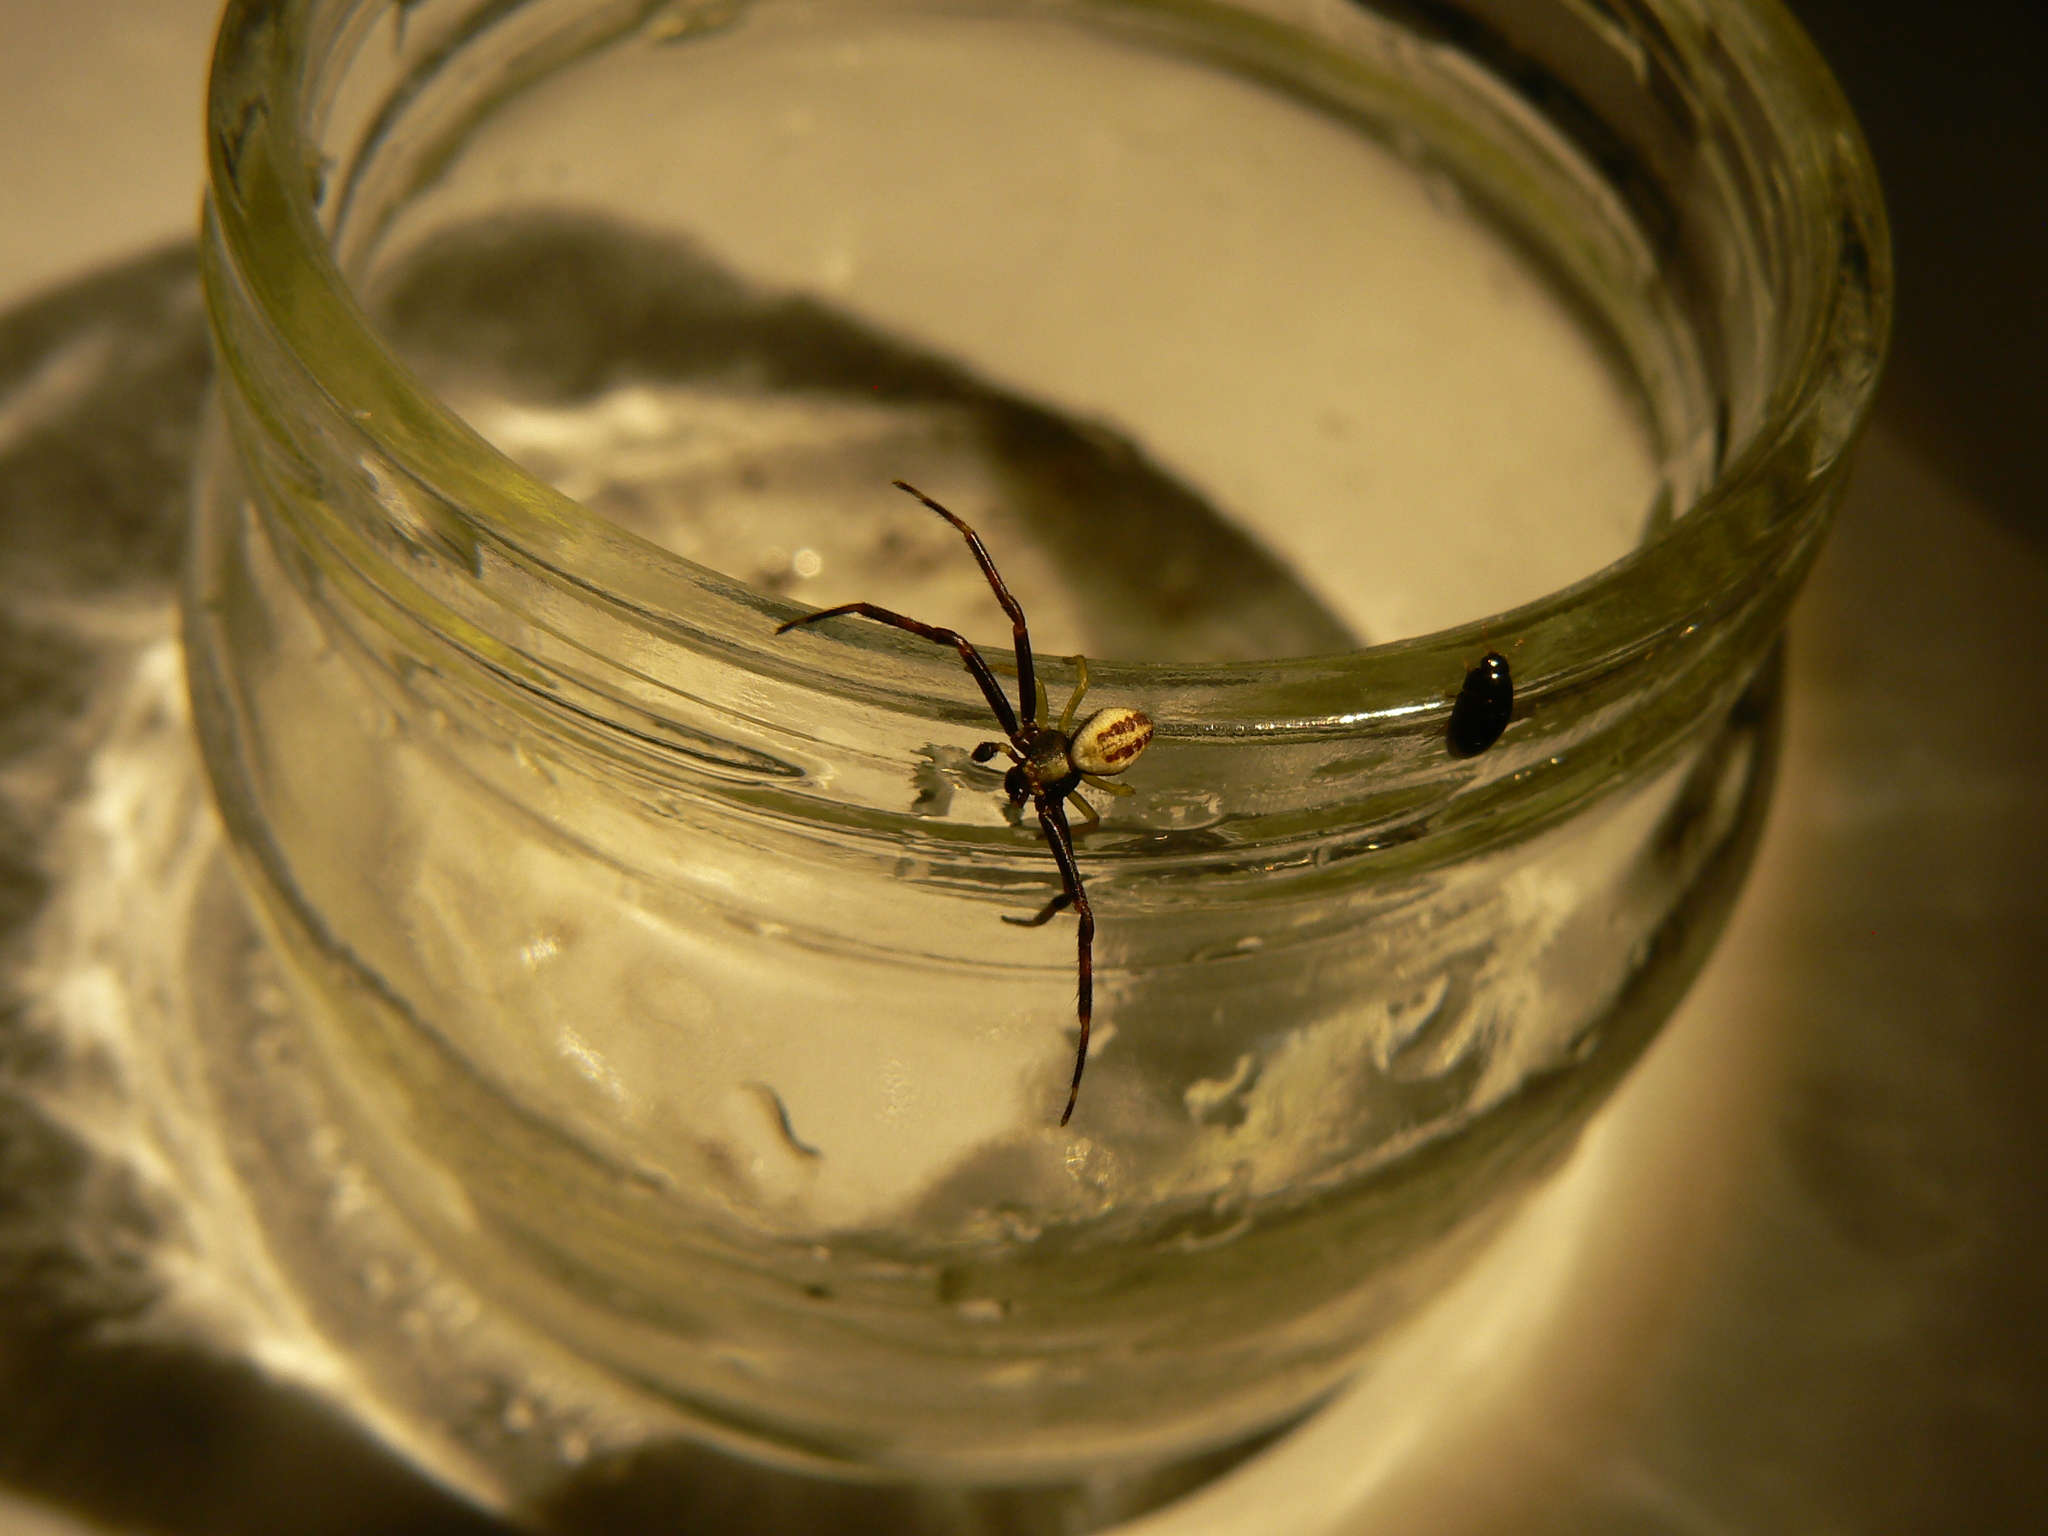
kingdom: Animalia
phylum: Arthropoda
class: Arachnida
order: Araneae
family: Thomisidae
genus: Misumena
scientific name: Misumena vatia
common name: Goldenrod crab spider
